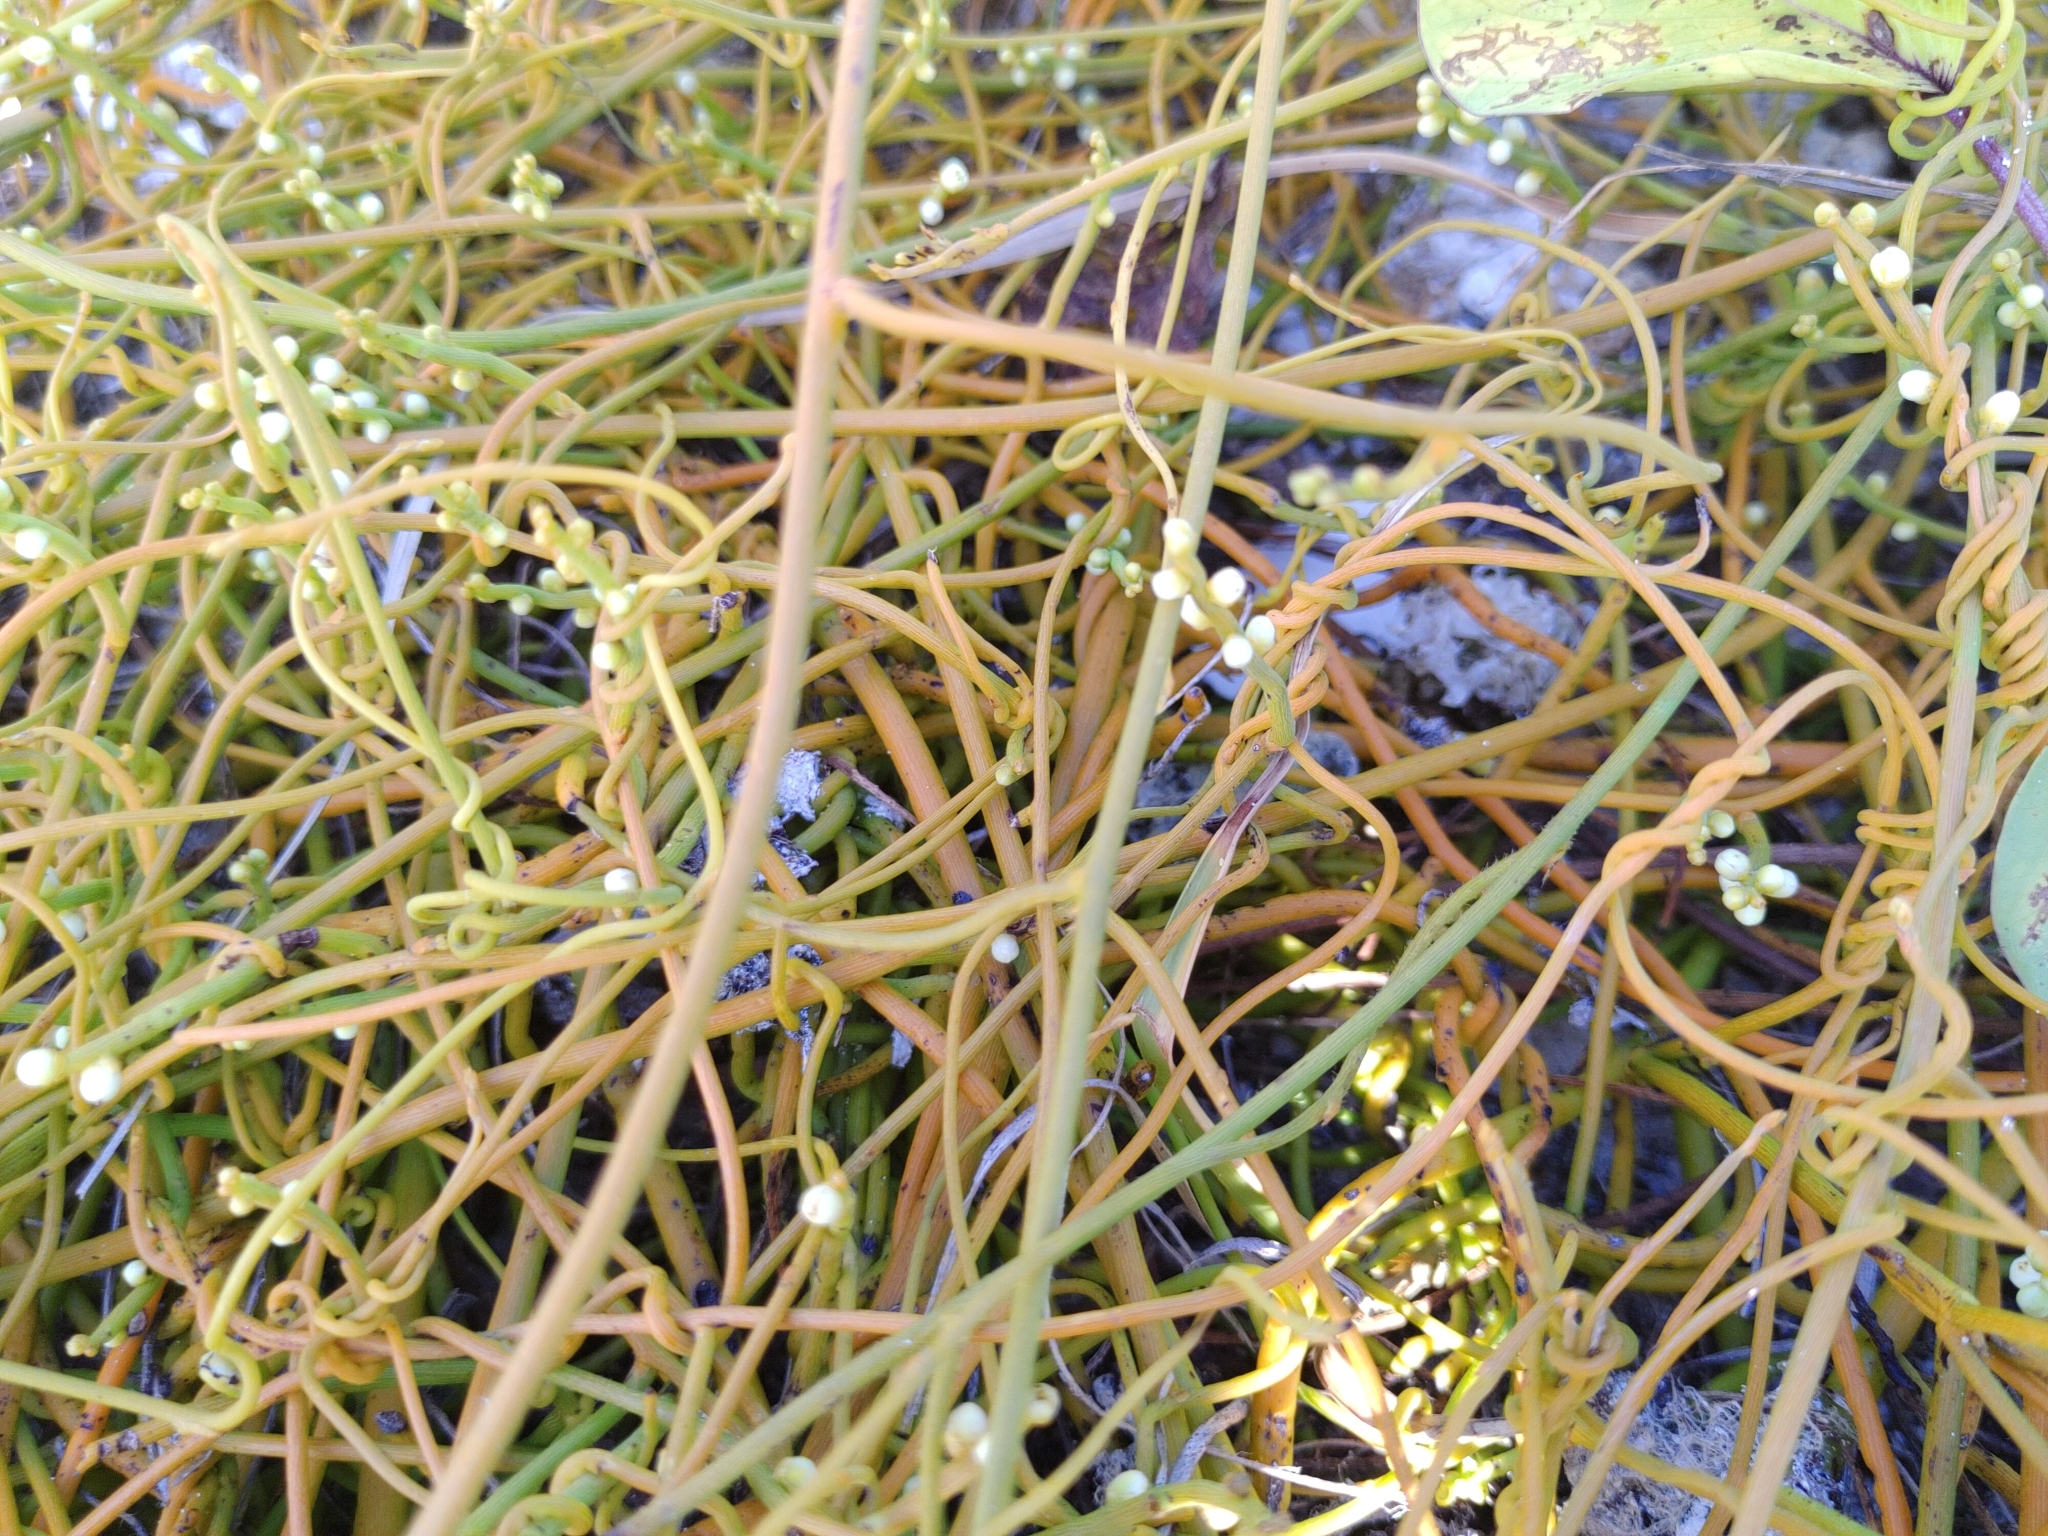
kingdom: Plantae
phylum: Tracheophyta
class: Magnoliopsida
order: Laurales
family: Lauraceae
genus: Cassytha
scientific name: Cassytha filiformis
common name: Dodder-laurel
